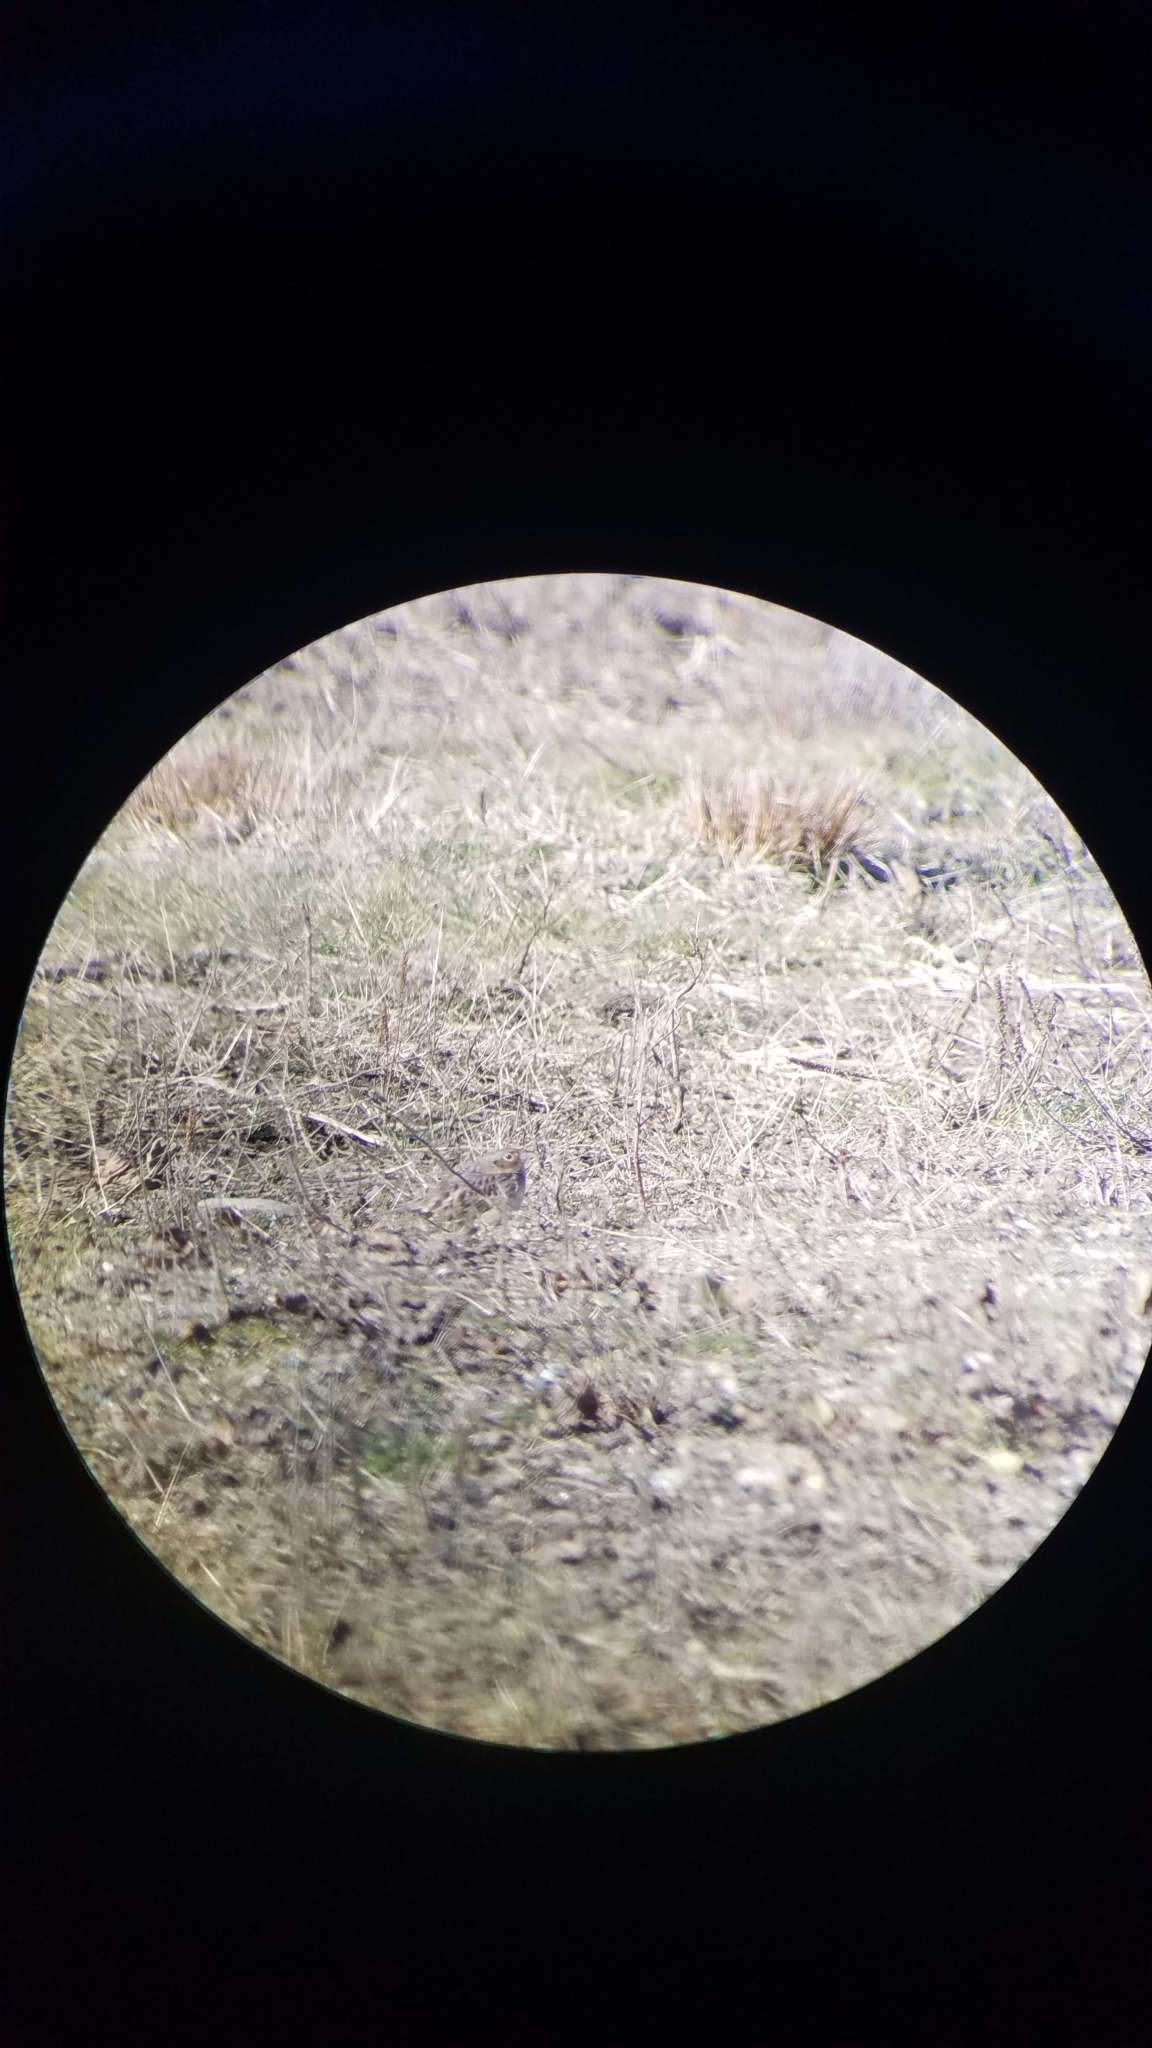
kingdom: Animalia
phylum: Chordata
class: Aves
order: Passeriformes
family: Passerellidae
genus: Ammodramus
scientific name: Ammodramus savannarum
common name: Grasshopper sparrow
